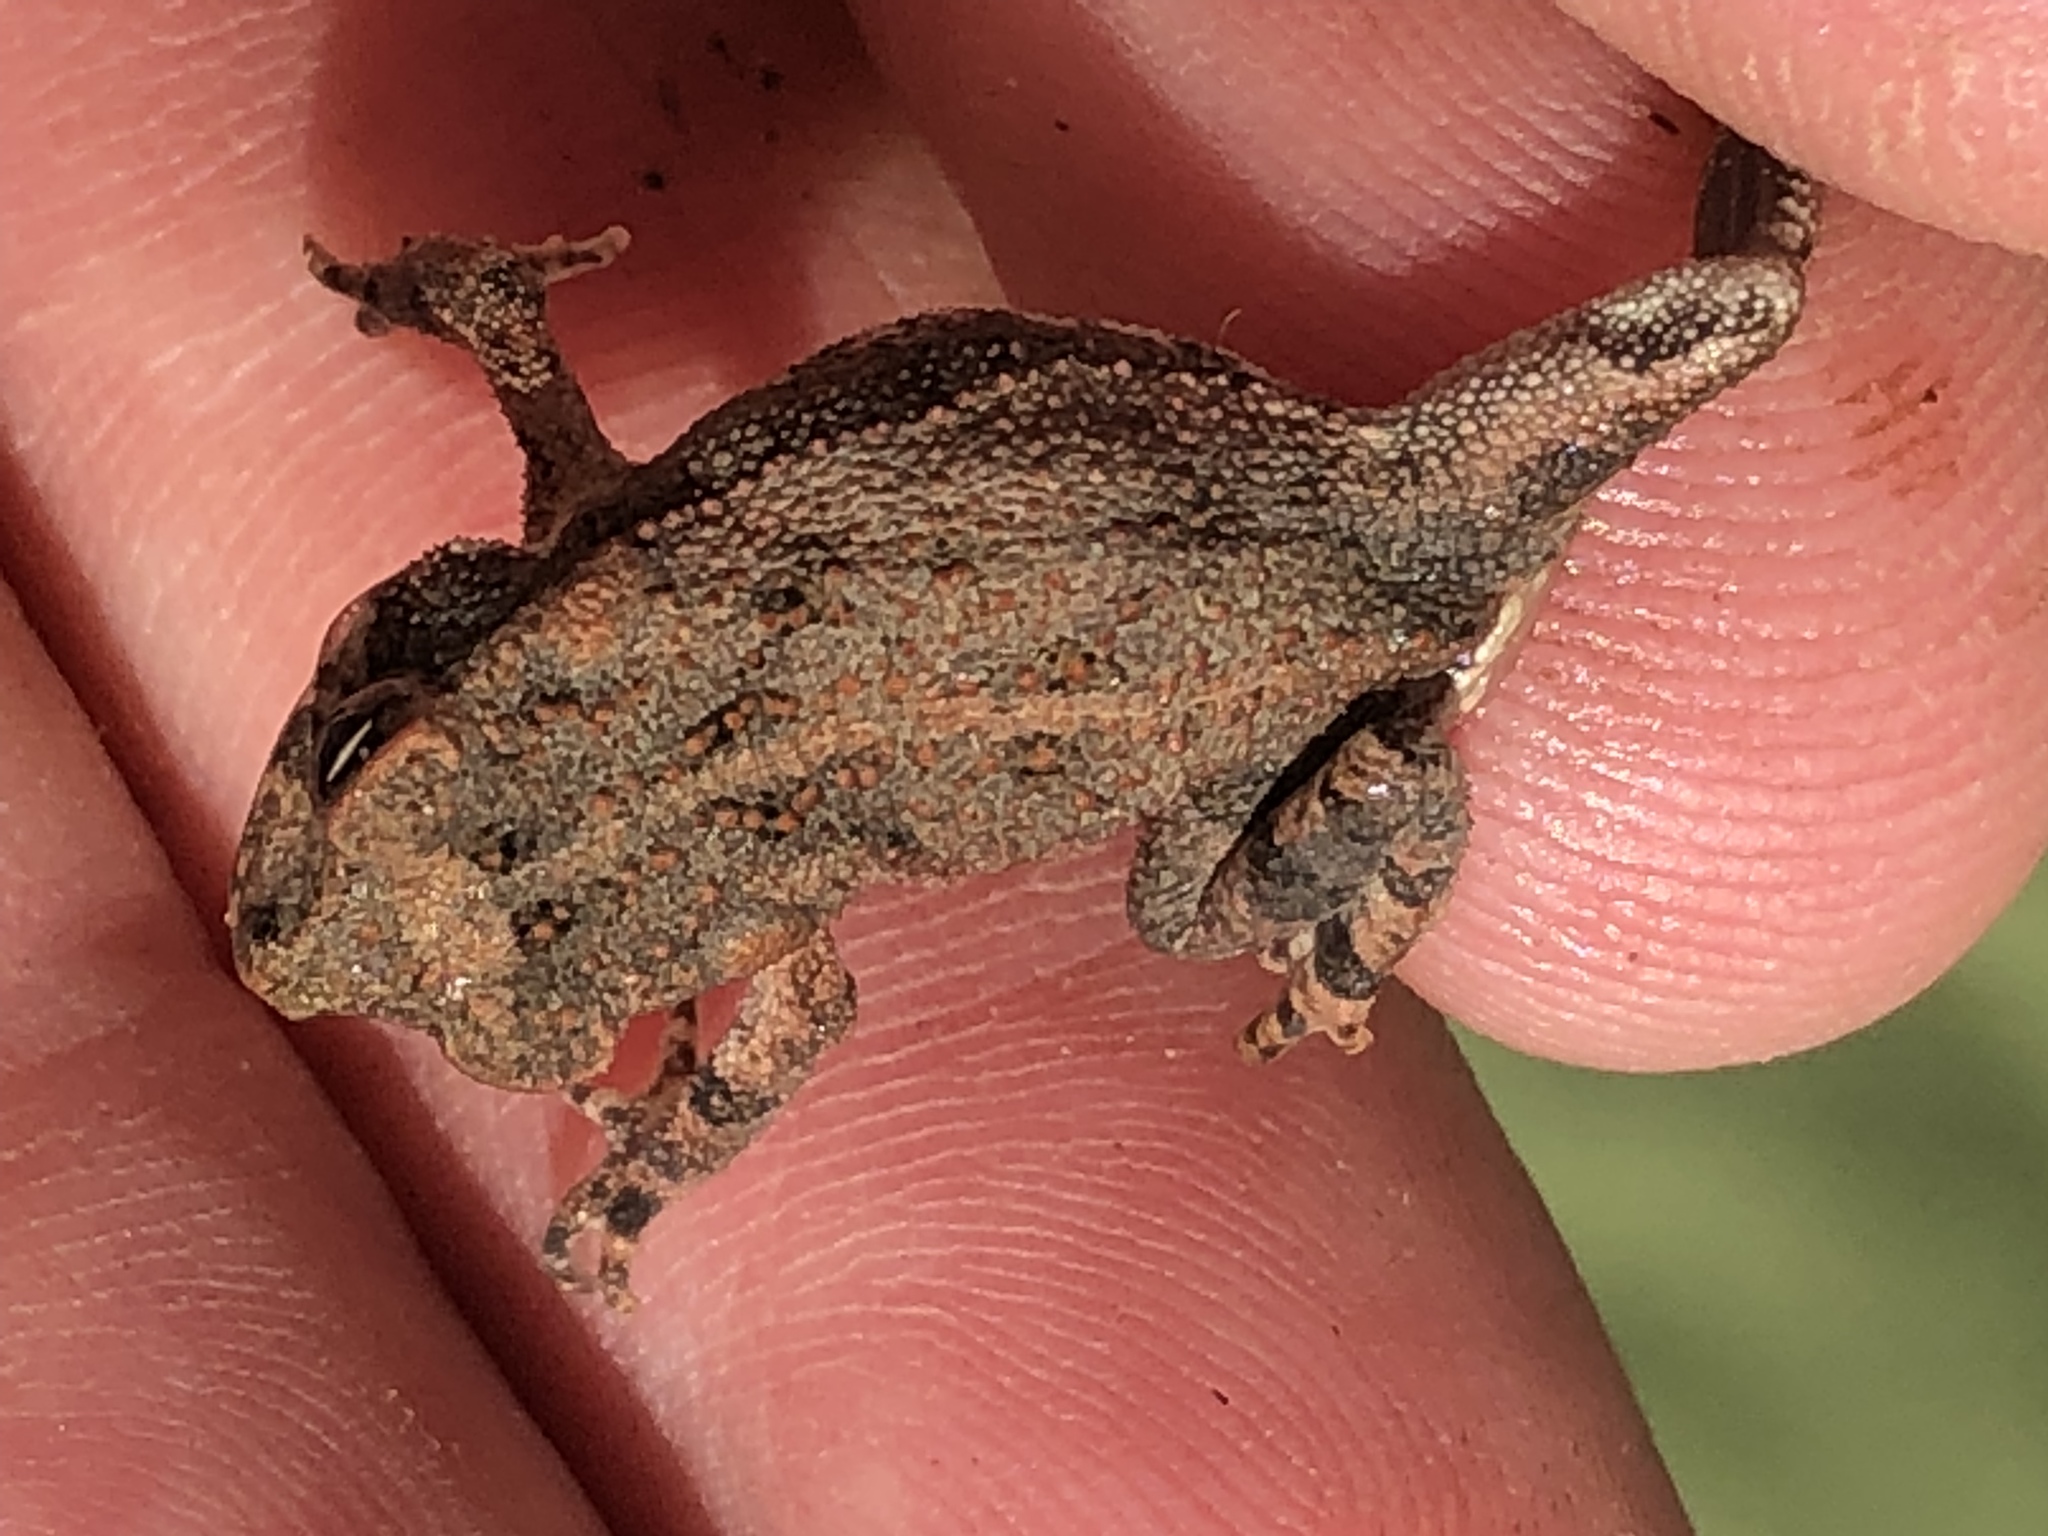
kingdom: Animalia
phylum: Chordata
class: Amphibia
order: Anura
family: Bufonidae
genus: Incilius
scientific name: Incilius nebulifer
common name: Gulf coast toad
